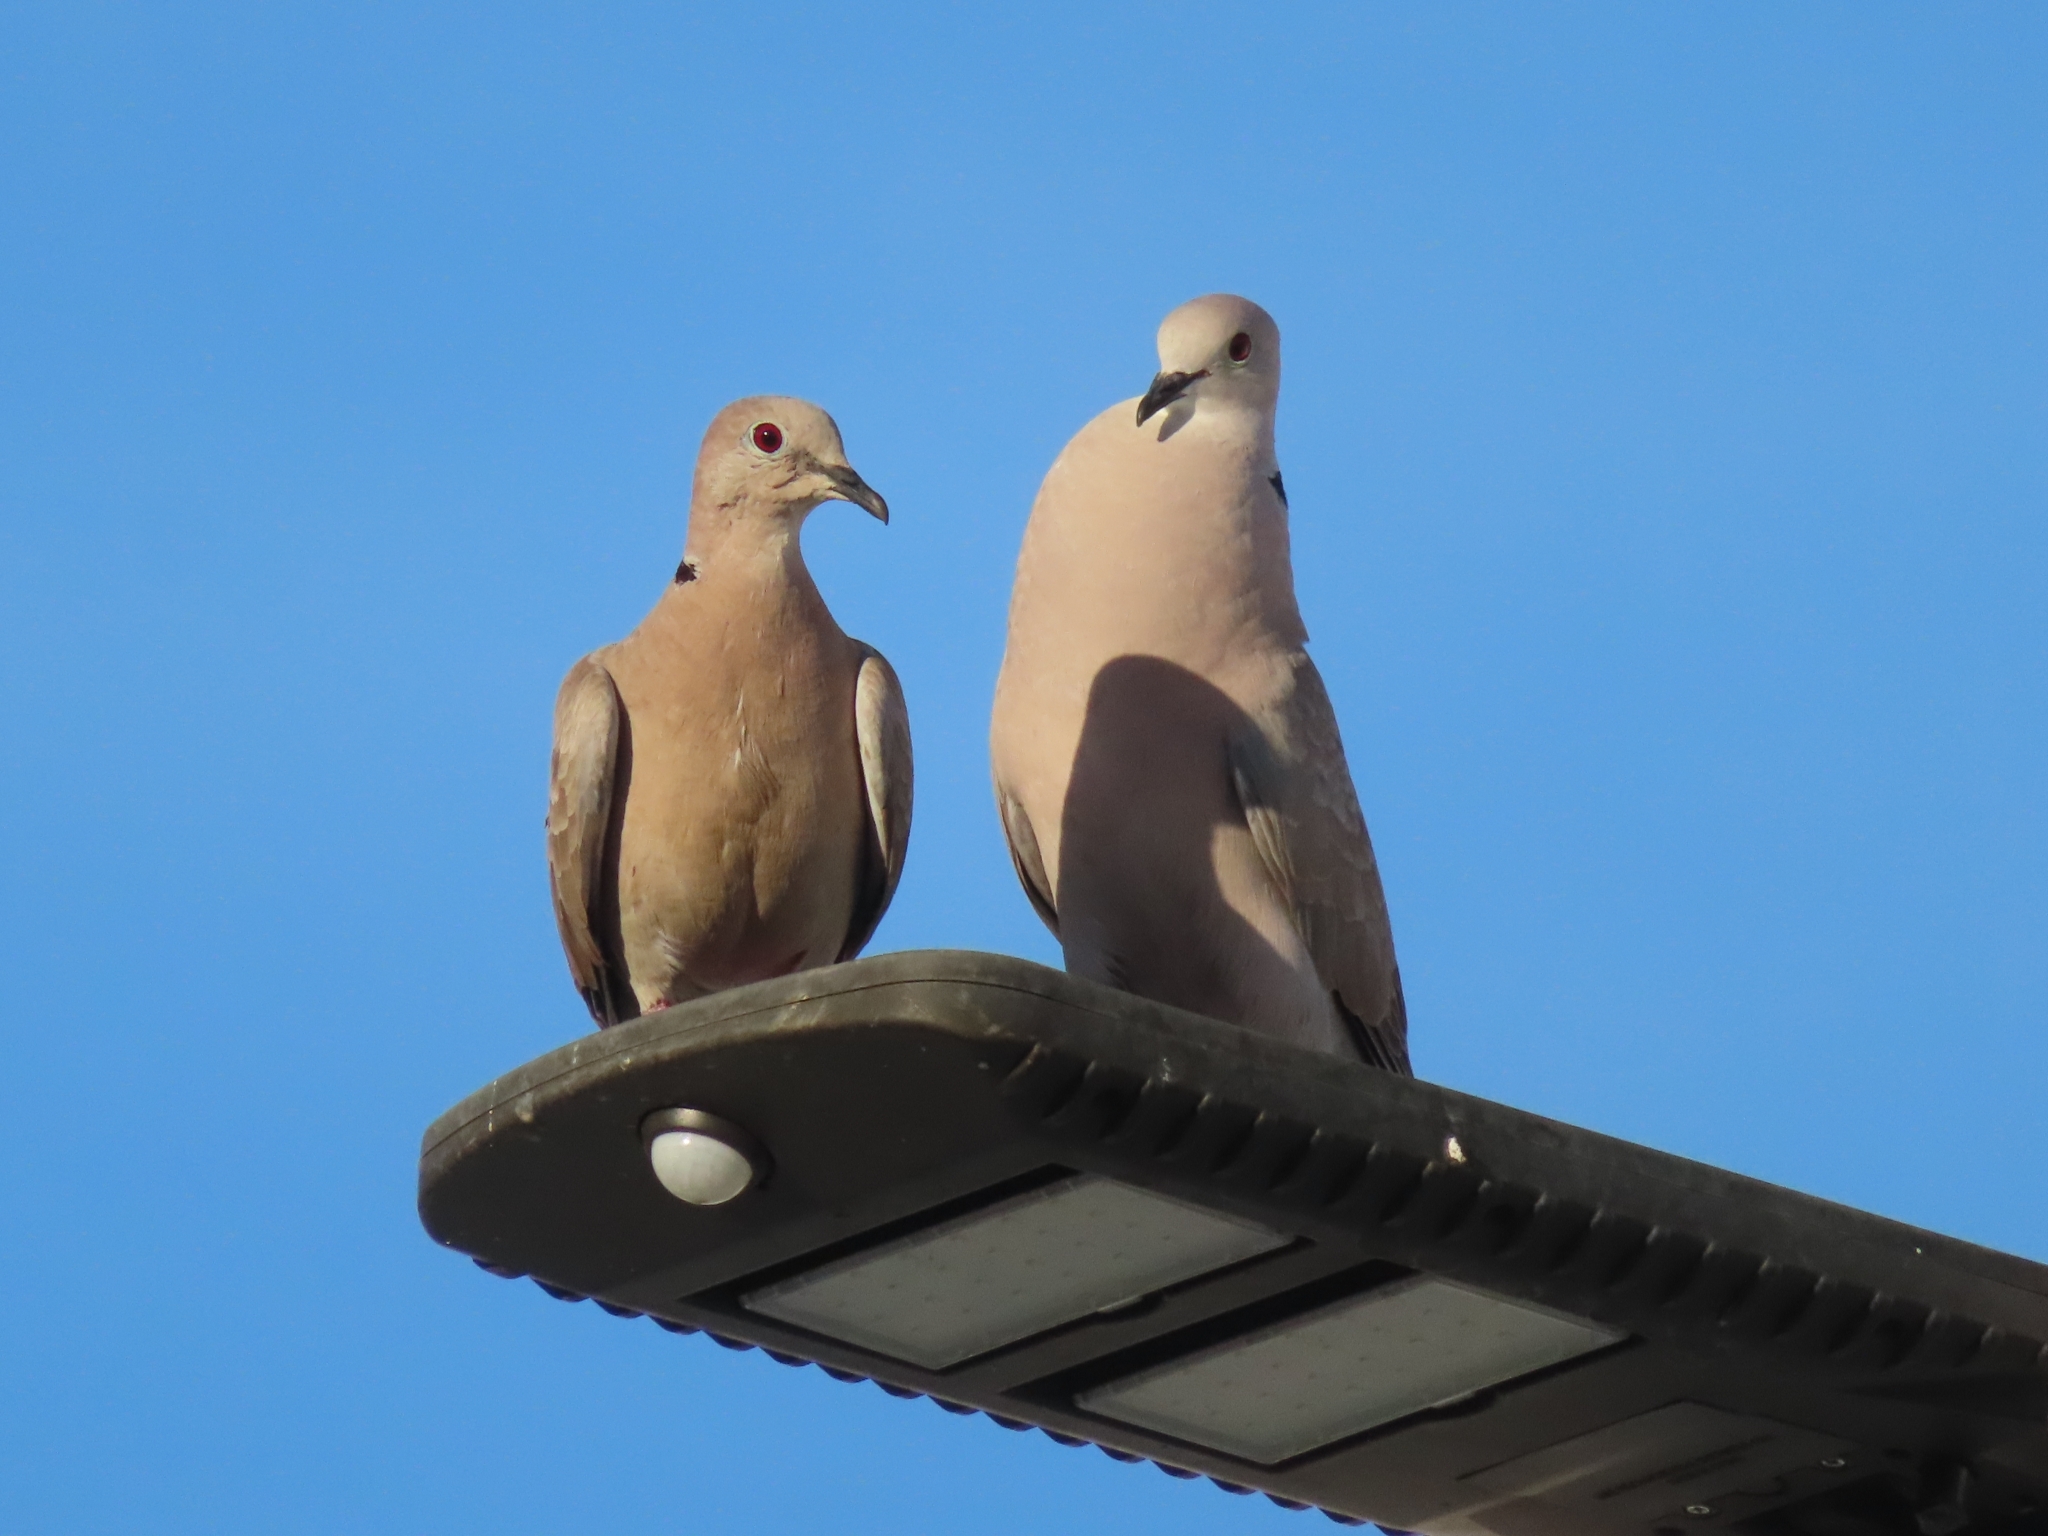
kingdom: Animalia
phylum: Chordata
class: Aves
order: Columbiformes
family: Columbidae
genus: Streptopelia
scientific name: Streptopelia decaocto
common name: Eurasian collared dove
